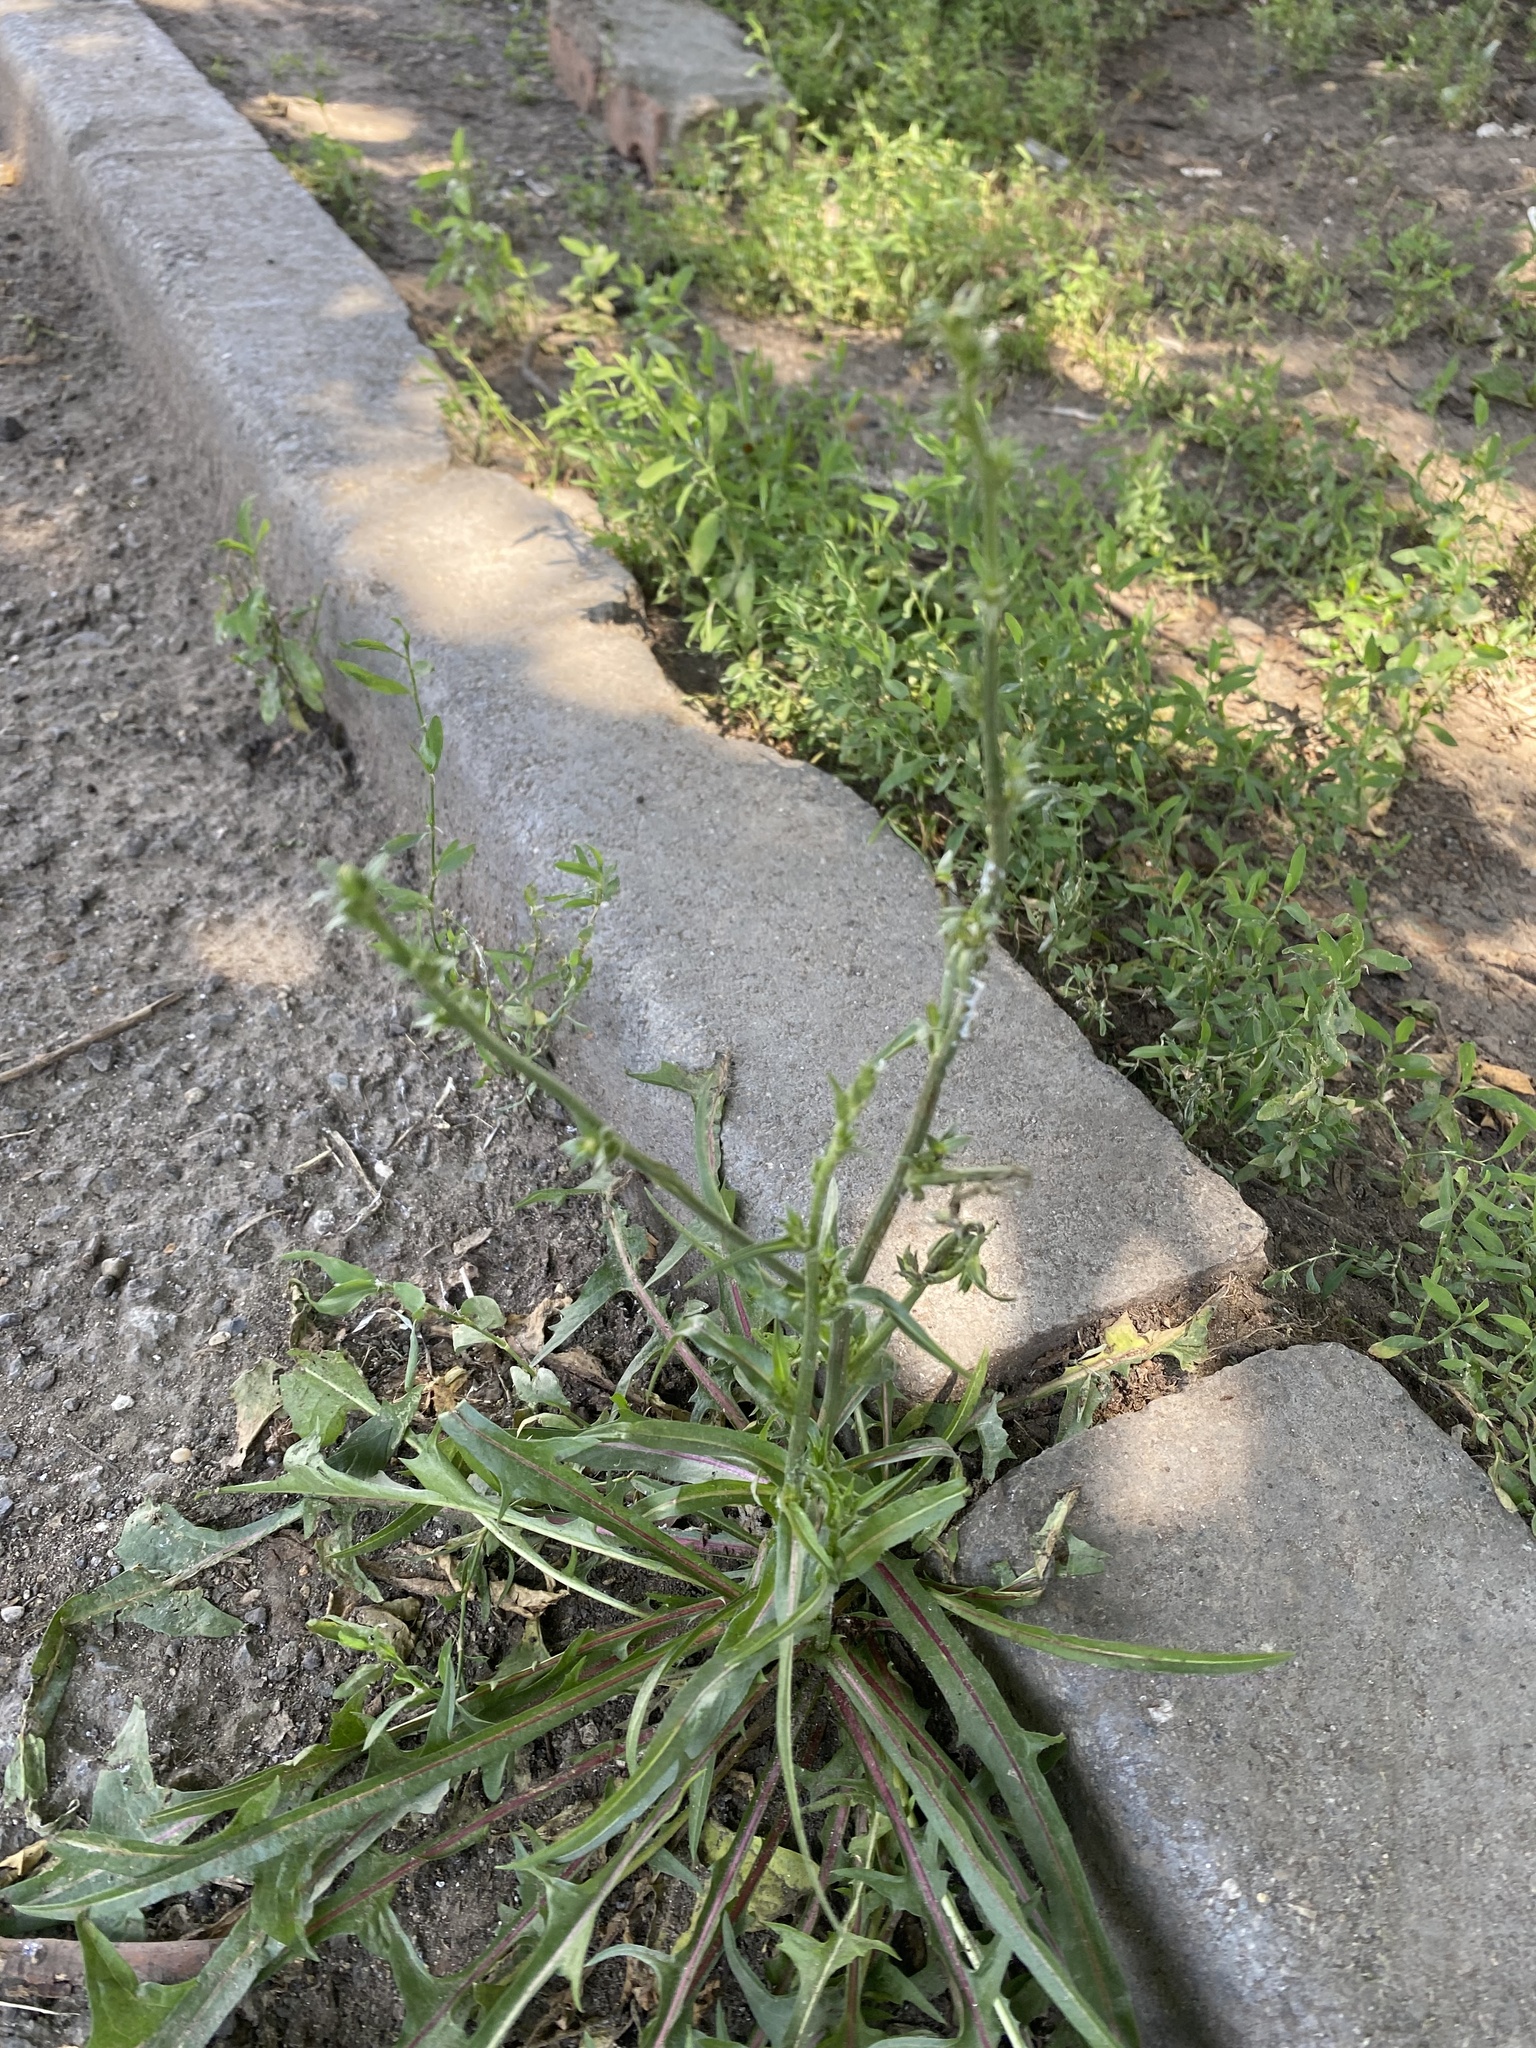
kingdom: Plantae
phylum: Tracheophyta
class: Magnoliopsida
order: Asterales
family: Asteraceae
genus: Cichorium
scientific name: Cichorium intybus
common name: Chicory
